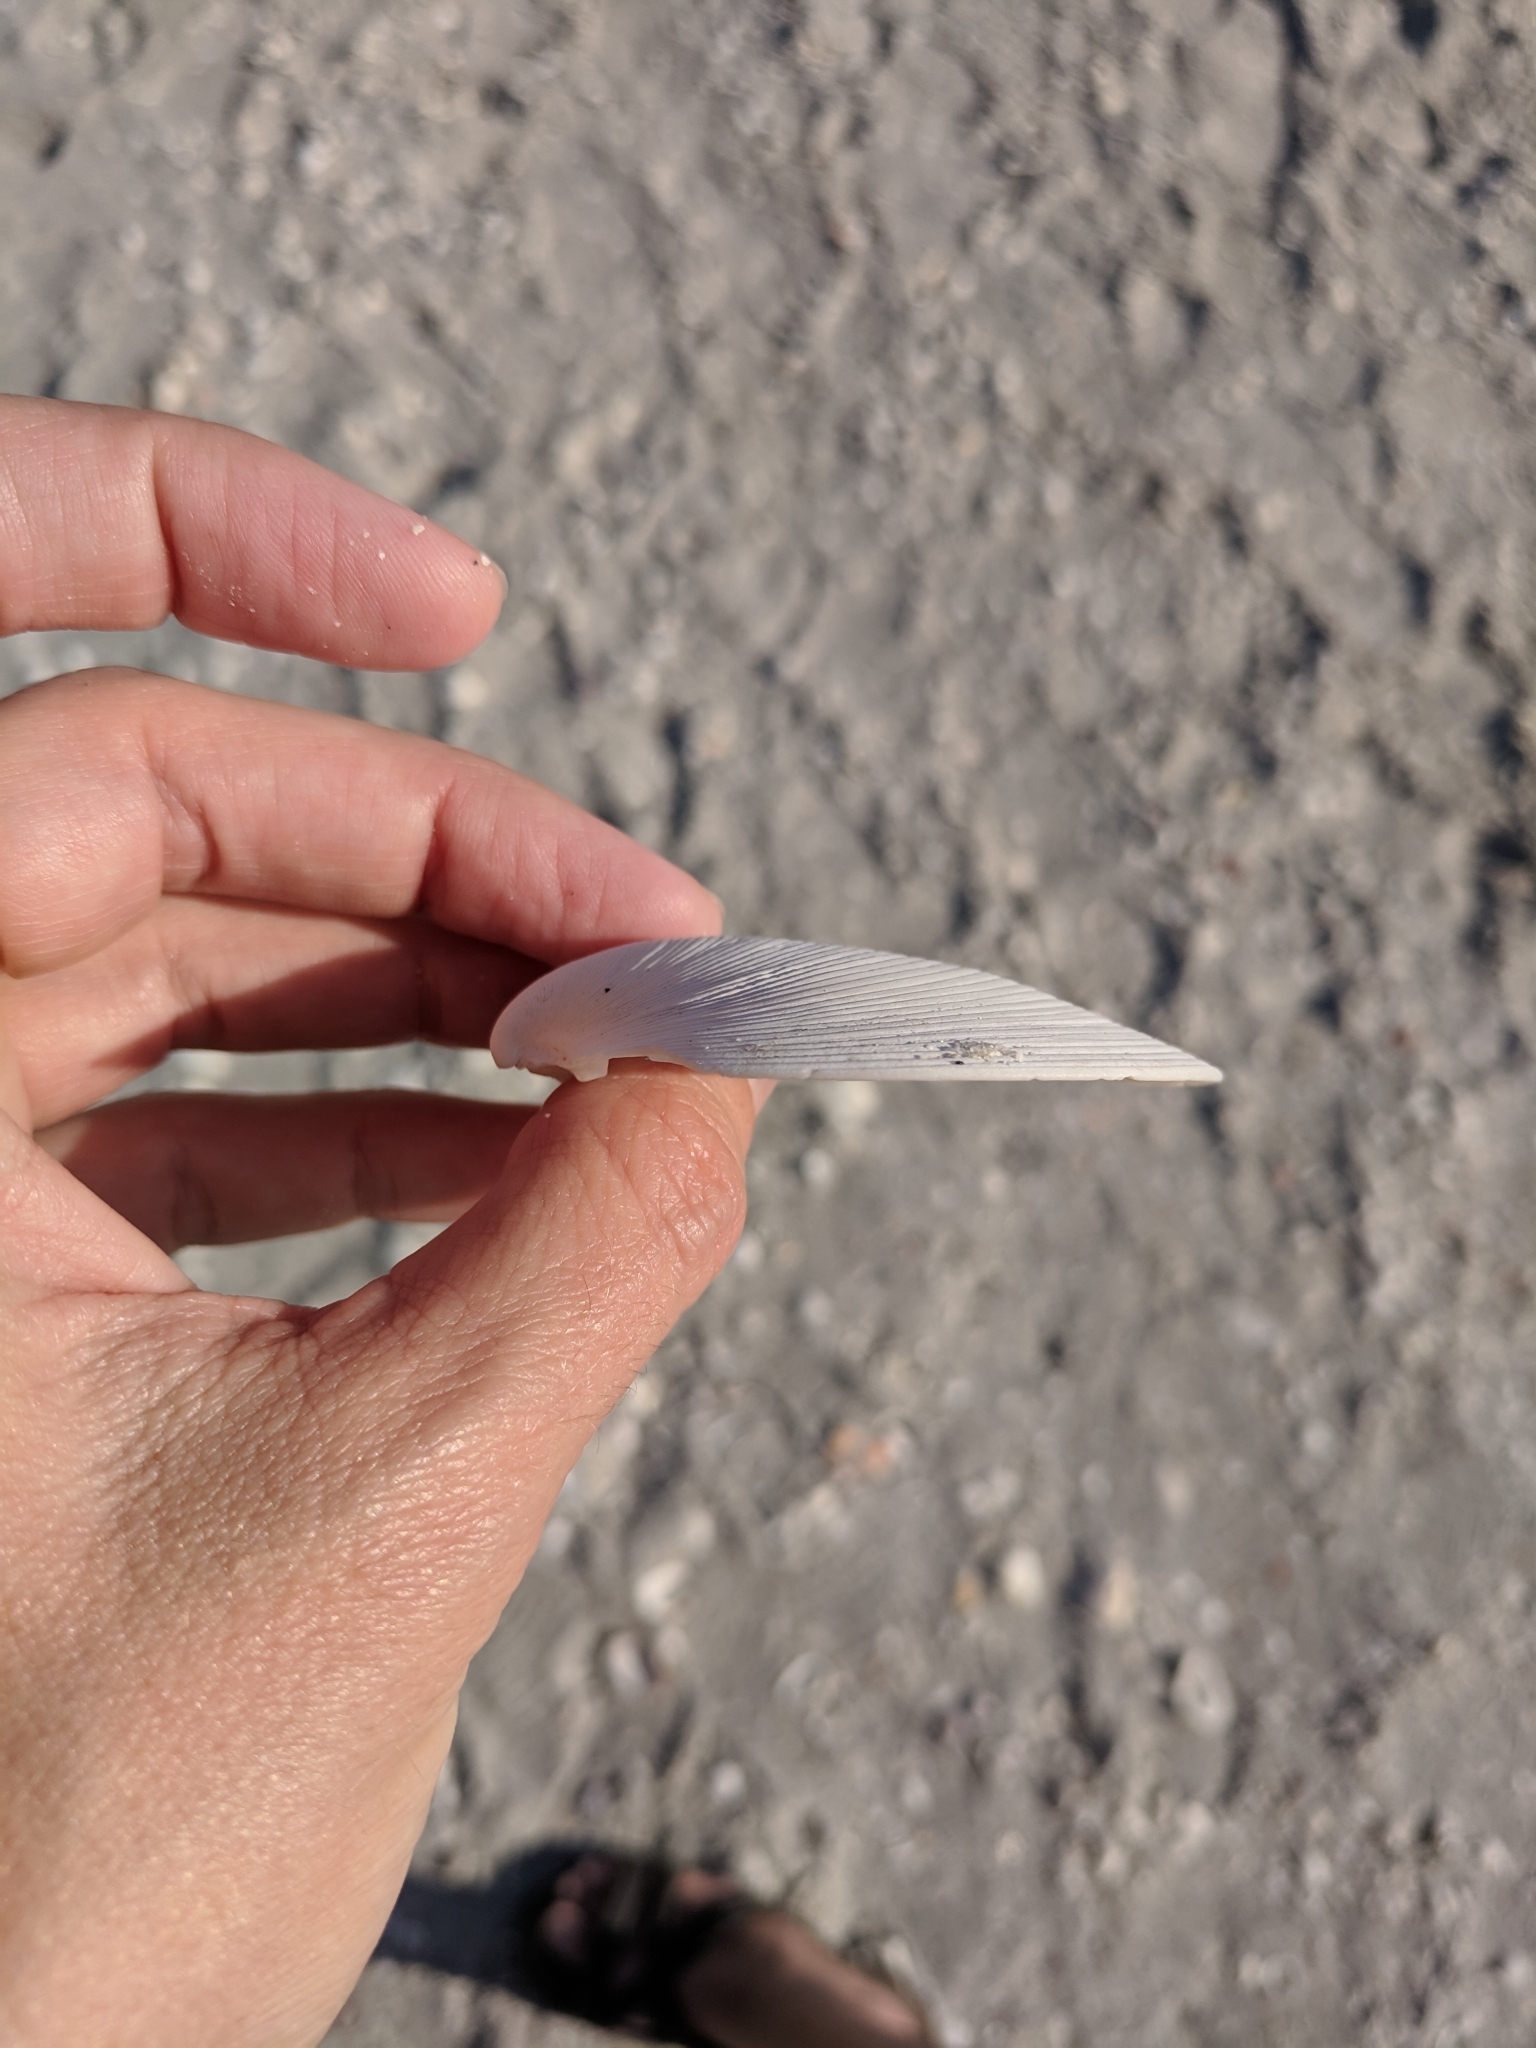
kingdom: Animalia
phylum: Mollusca
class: Bivalvia
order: Venerida
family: Veneridae
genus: Dosinia
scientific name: Dosinia concentrica
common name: Elegant dosinia
